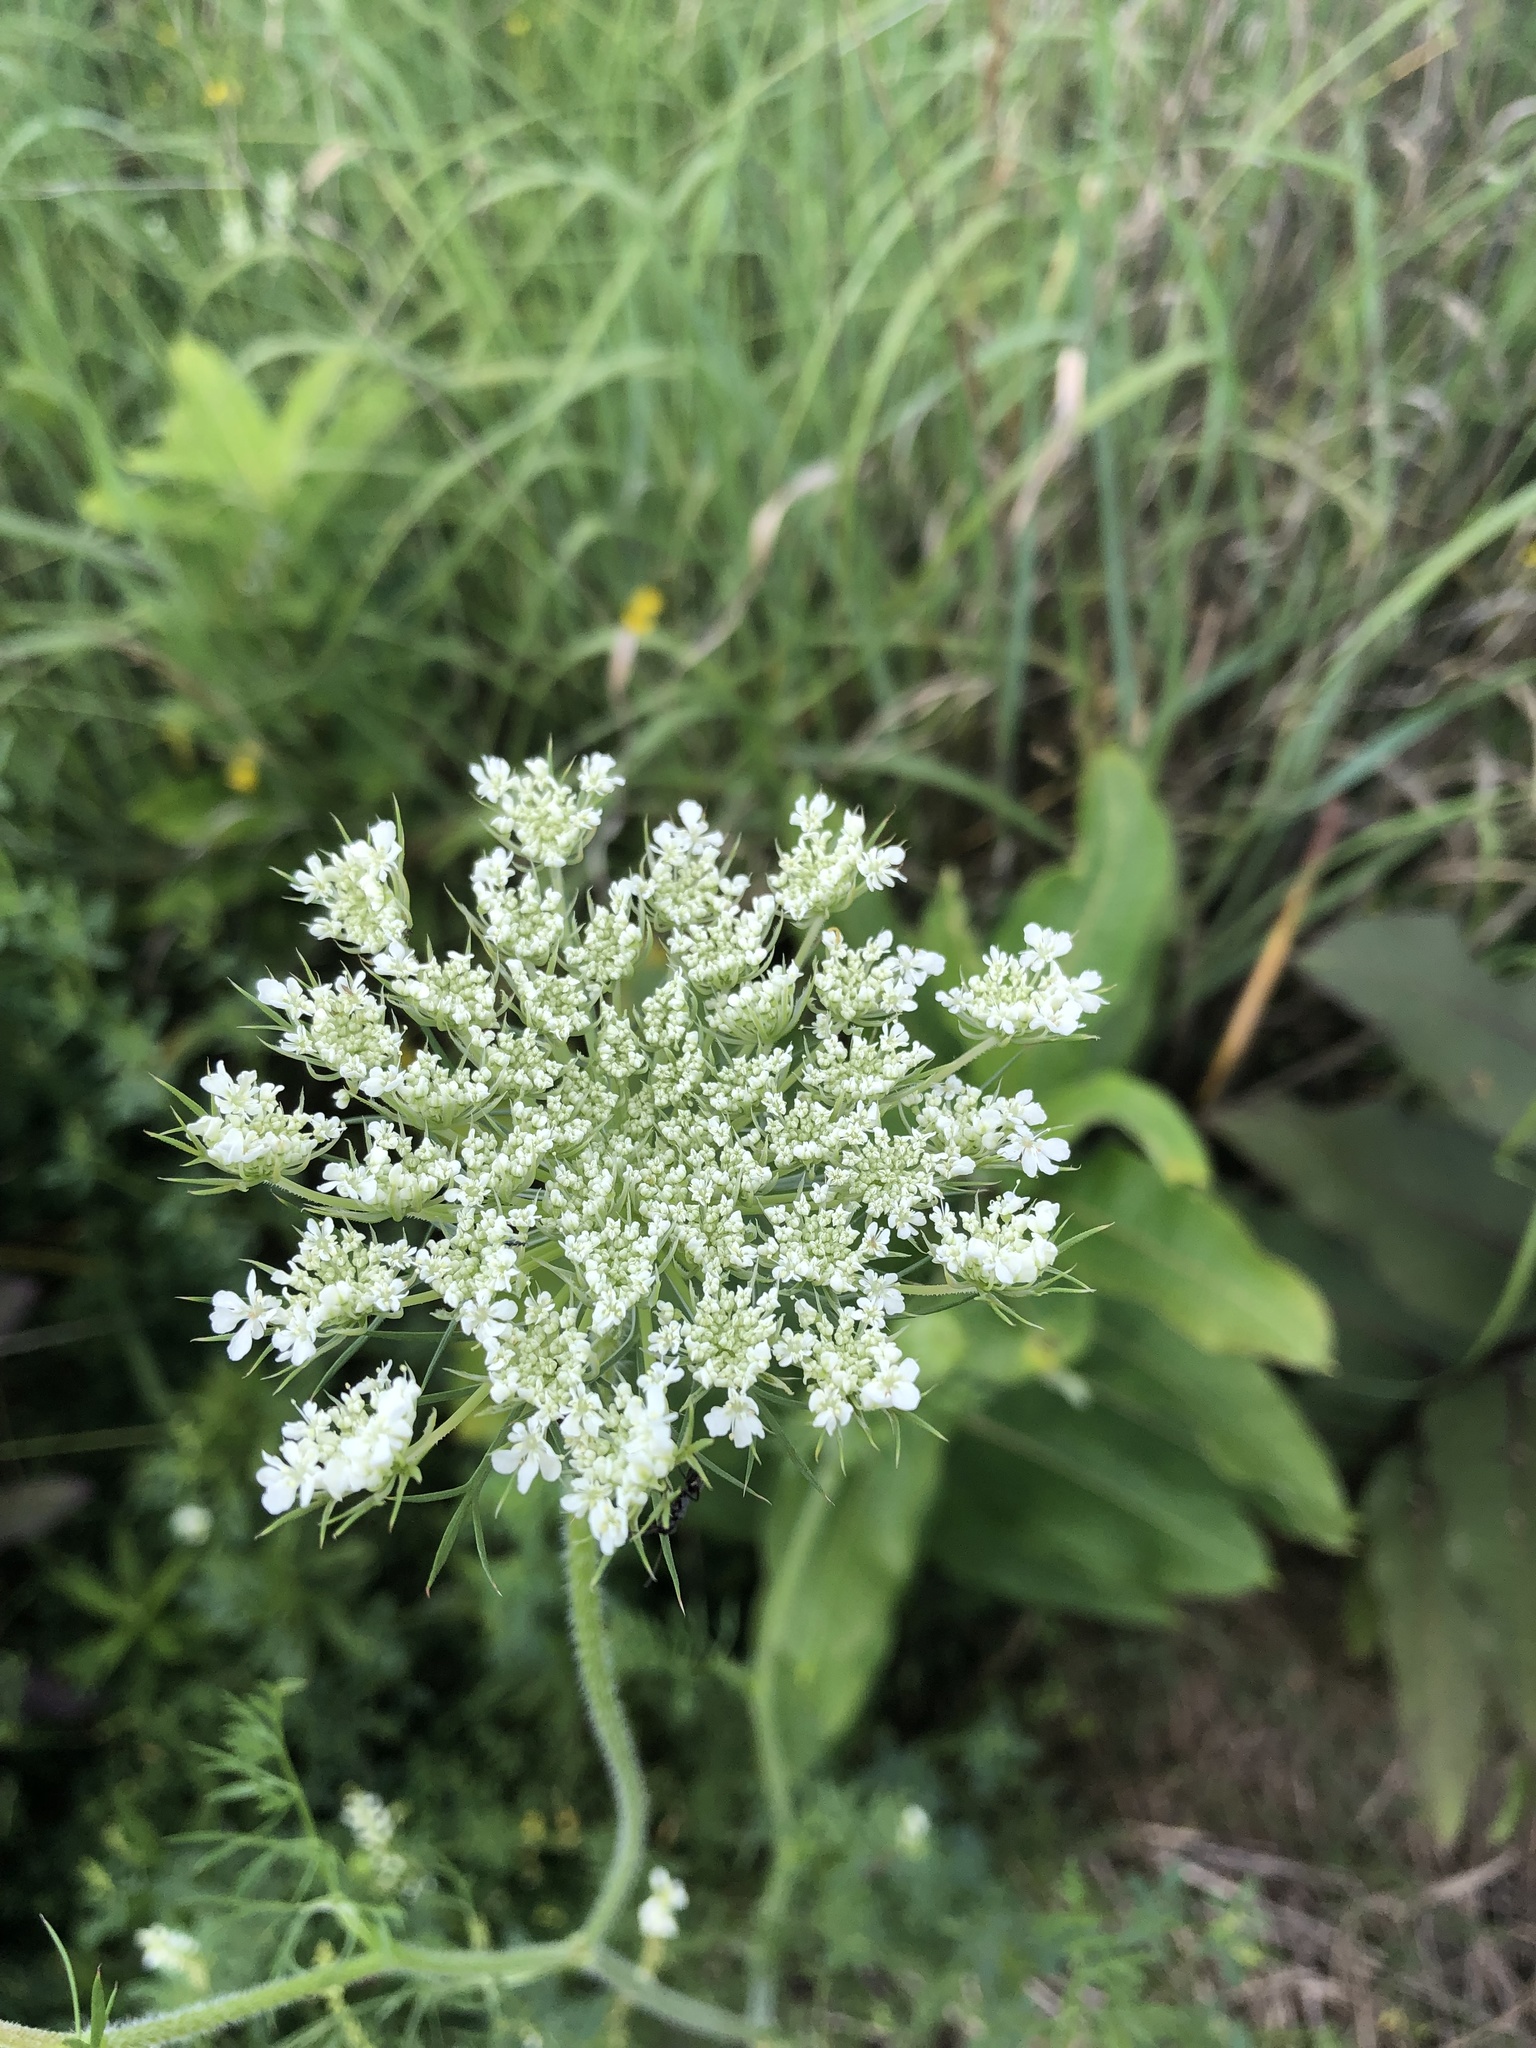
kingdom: Plantae
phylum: Tracheophyta
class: Magnoliopsida
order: Apiales
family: Apiaceae
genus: Daucus
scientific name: Daucus carota
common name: Wild carrot
